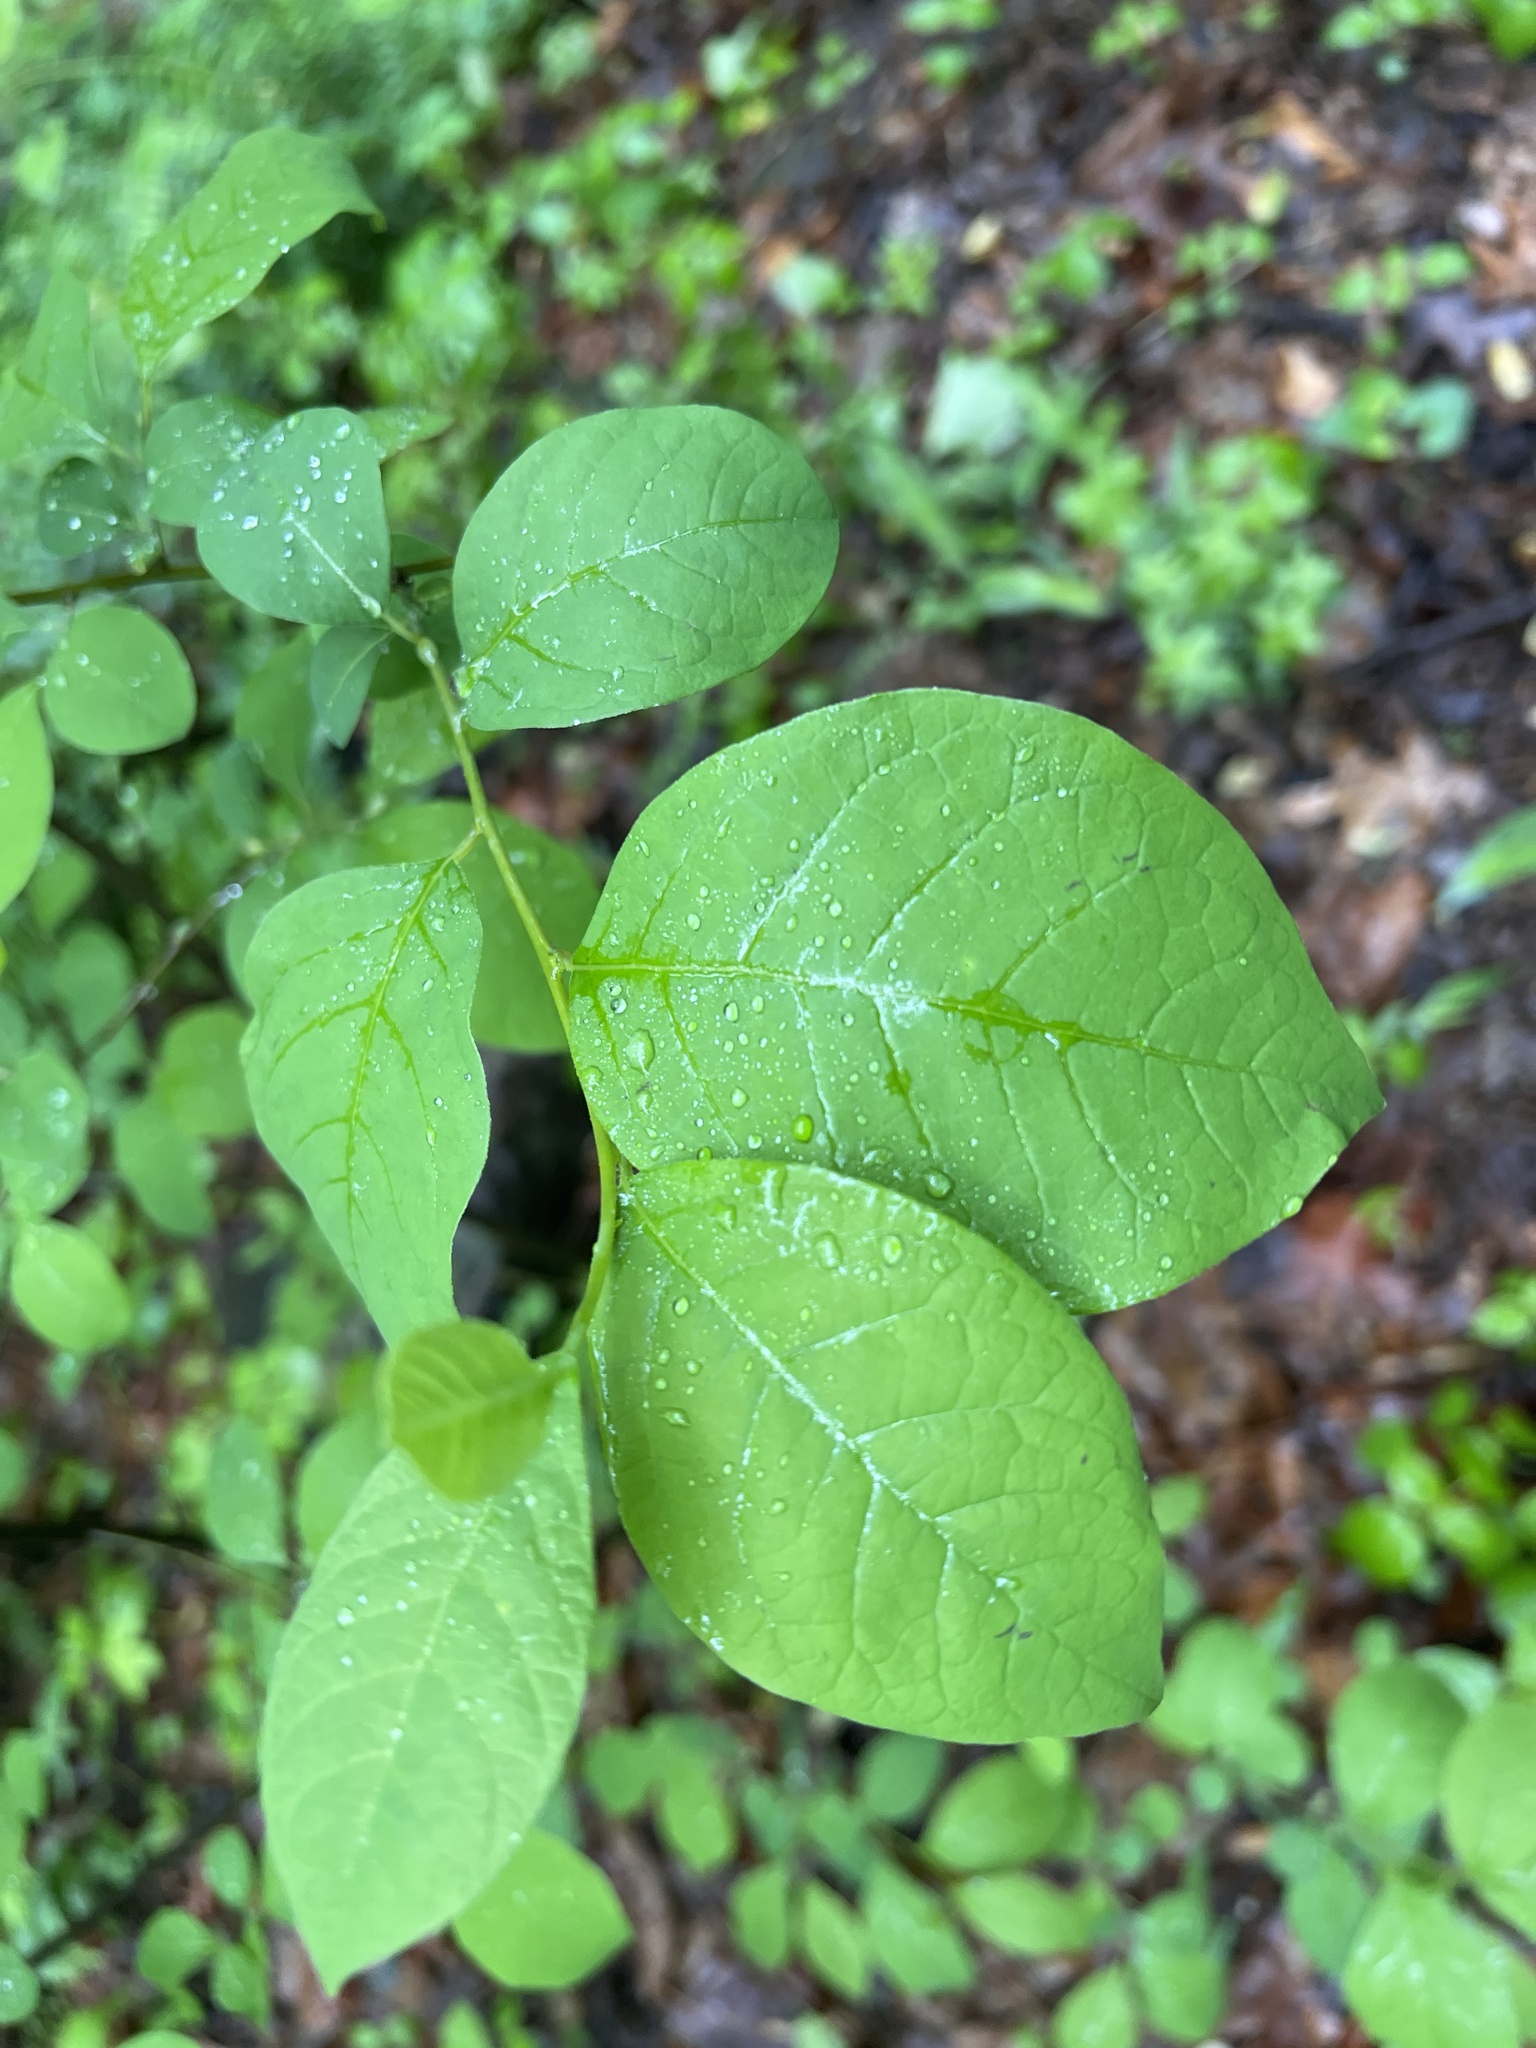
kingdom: Plantae
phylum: Tracheophyta
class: Magnoliopsida
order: Laurales
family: Lauraceae
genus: Lindera
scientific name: Lindera benzoin
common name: Spicebush
